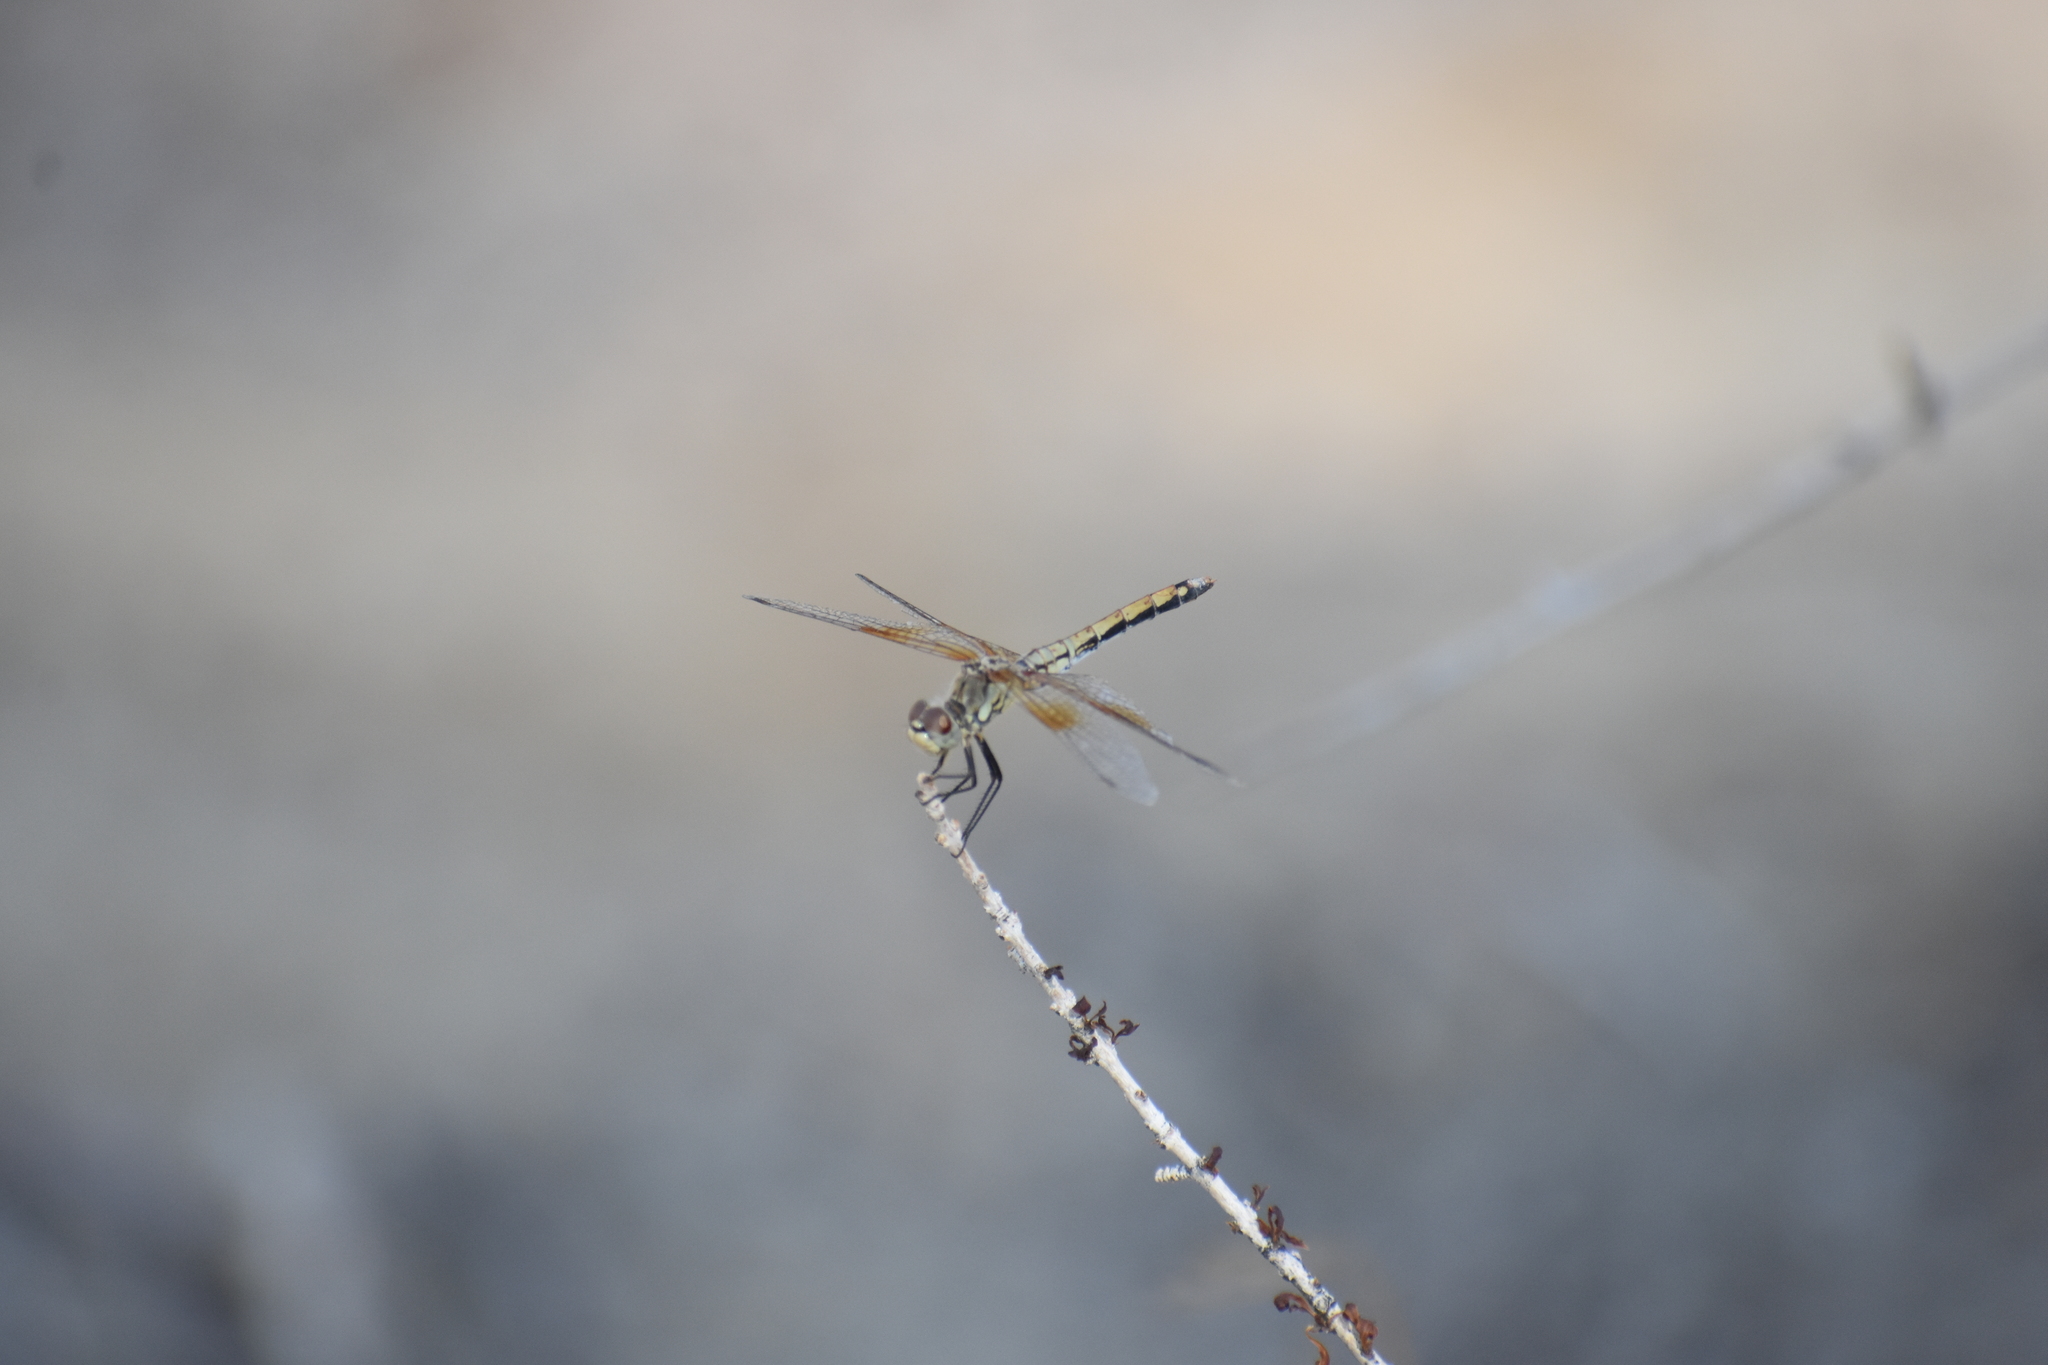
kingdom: Animalia
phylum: Arthropoda
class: Insecta
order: Odonata
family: Libellulidae
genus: Sympetrum
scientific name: Sympetrum semicinctum
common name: Band-winged meadowhawk
